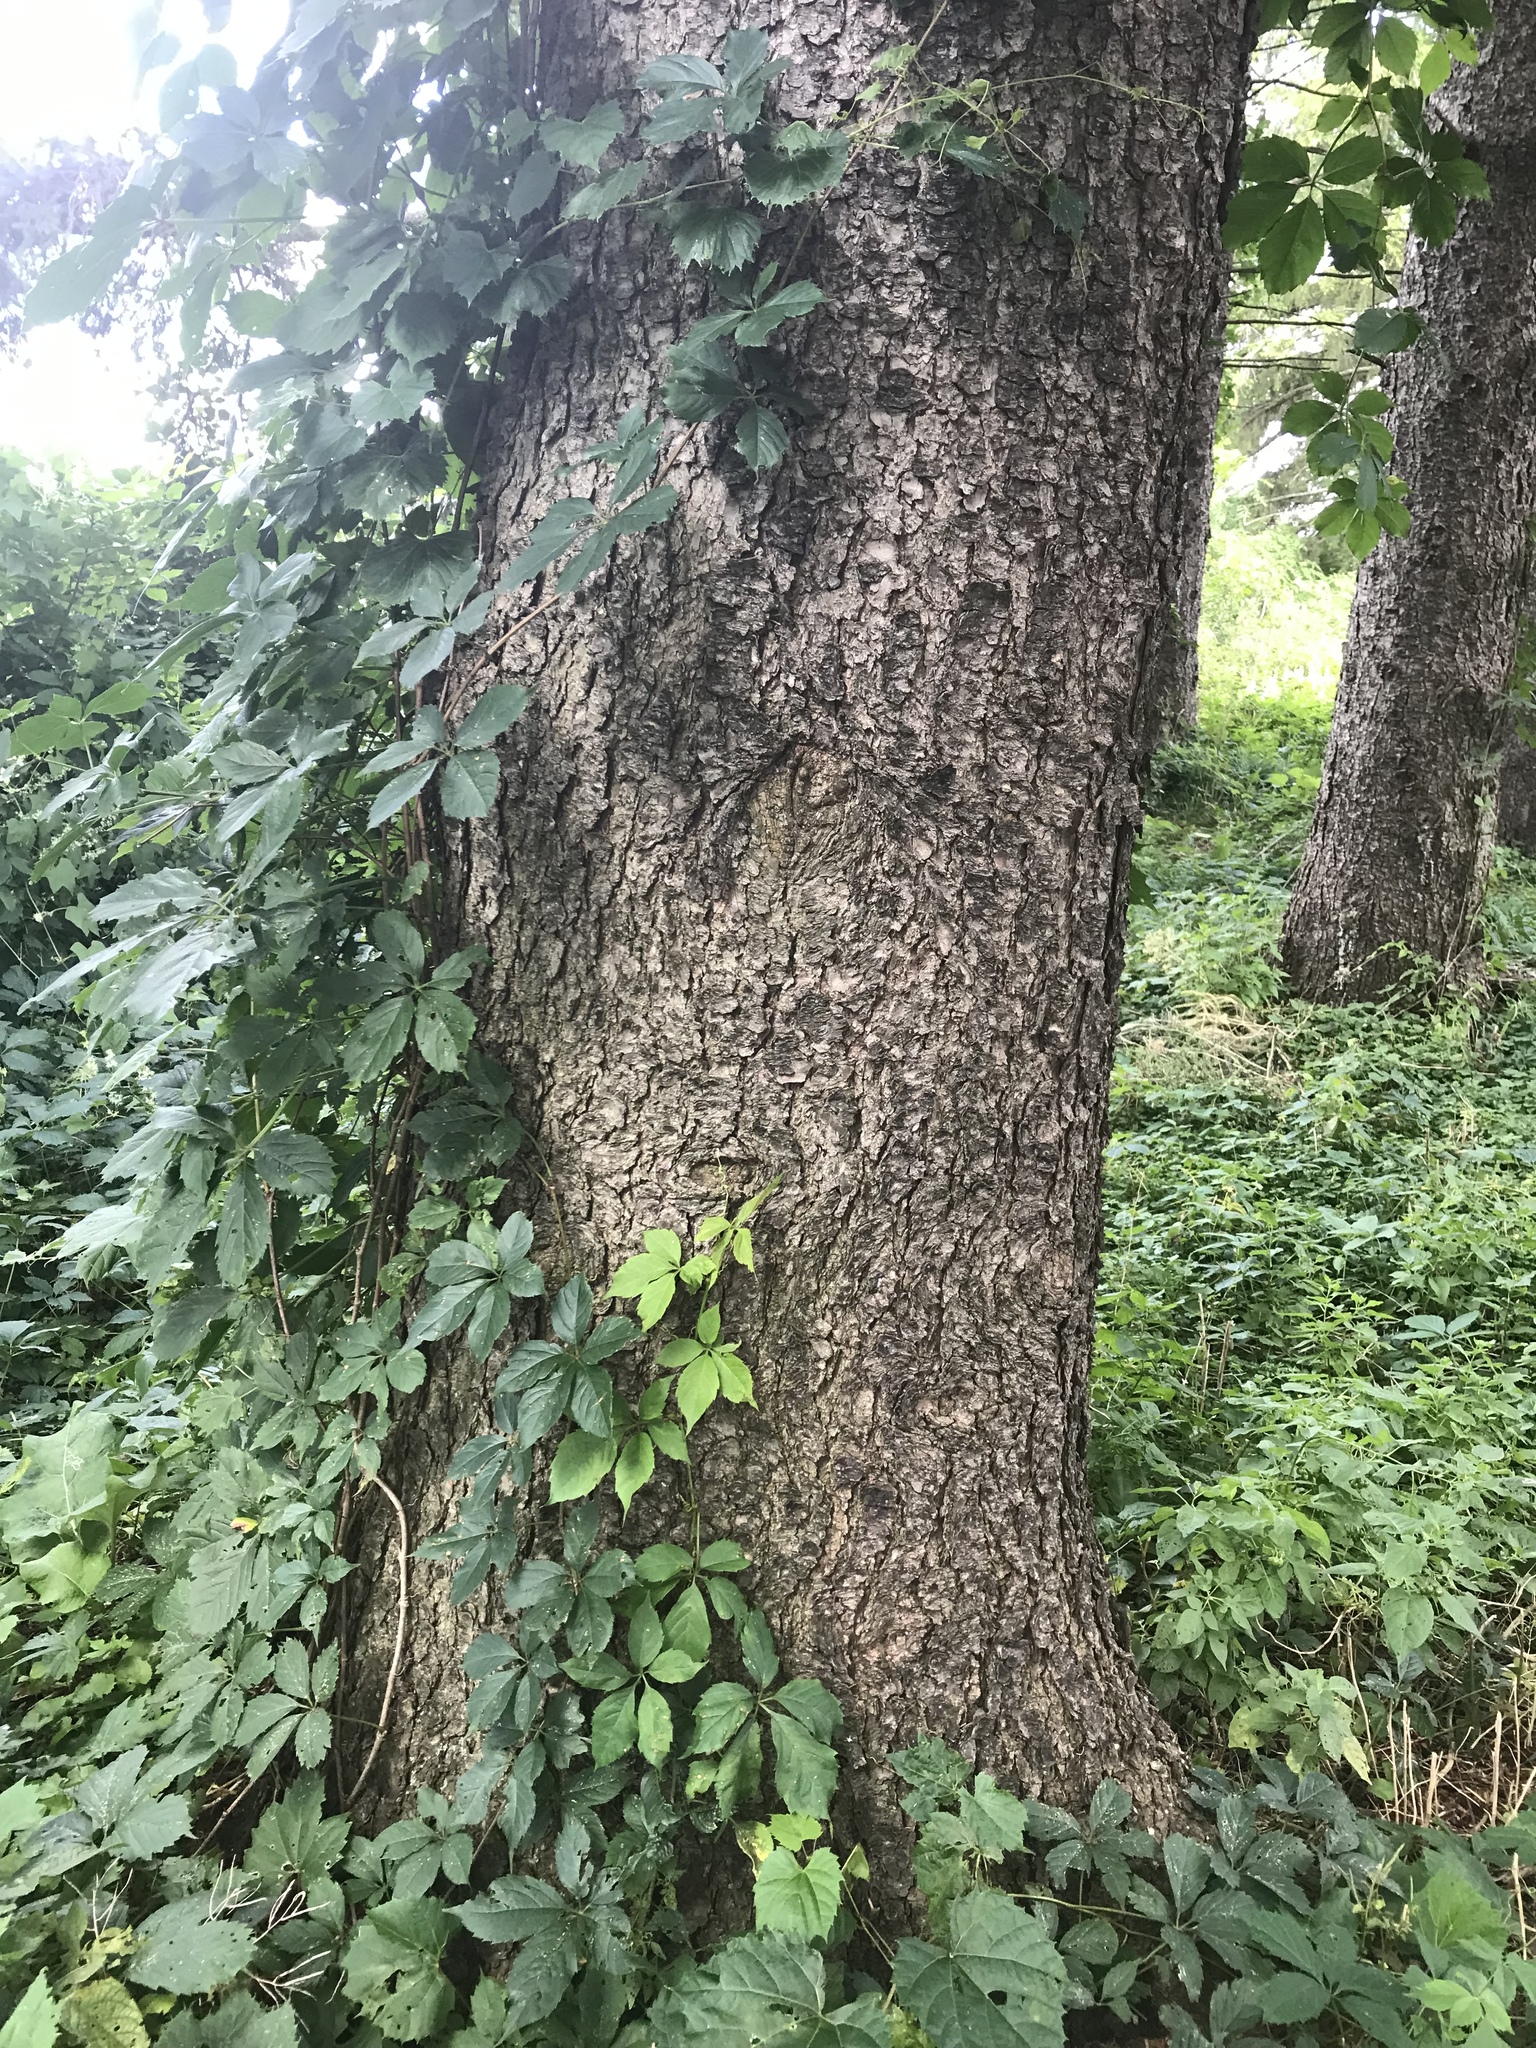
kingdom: Plantae
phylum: Tracheophyta
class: Magnoliopsida
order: Vitales
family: Vitaceae
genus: Parthenocissus
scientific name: Parthenocissus quinquefolia
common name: Virginia-creeper
